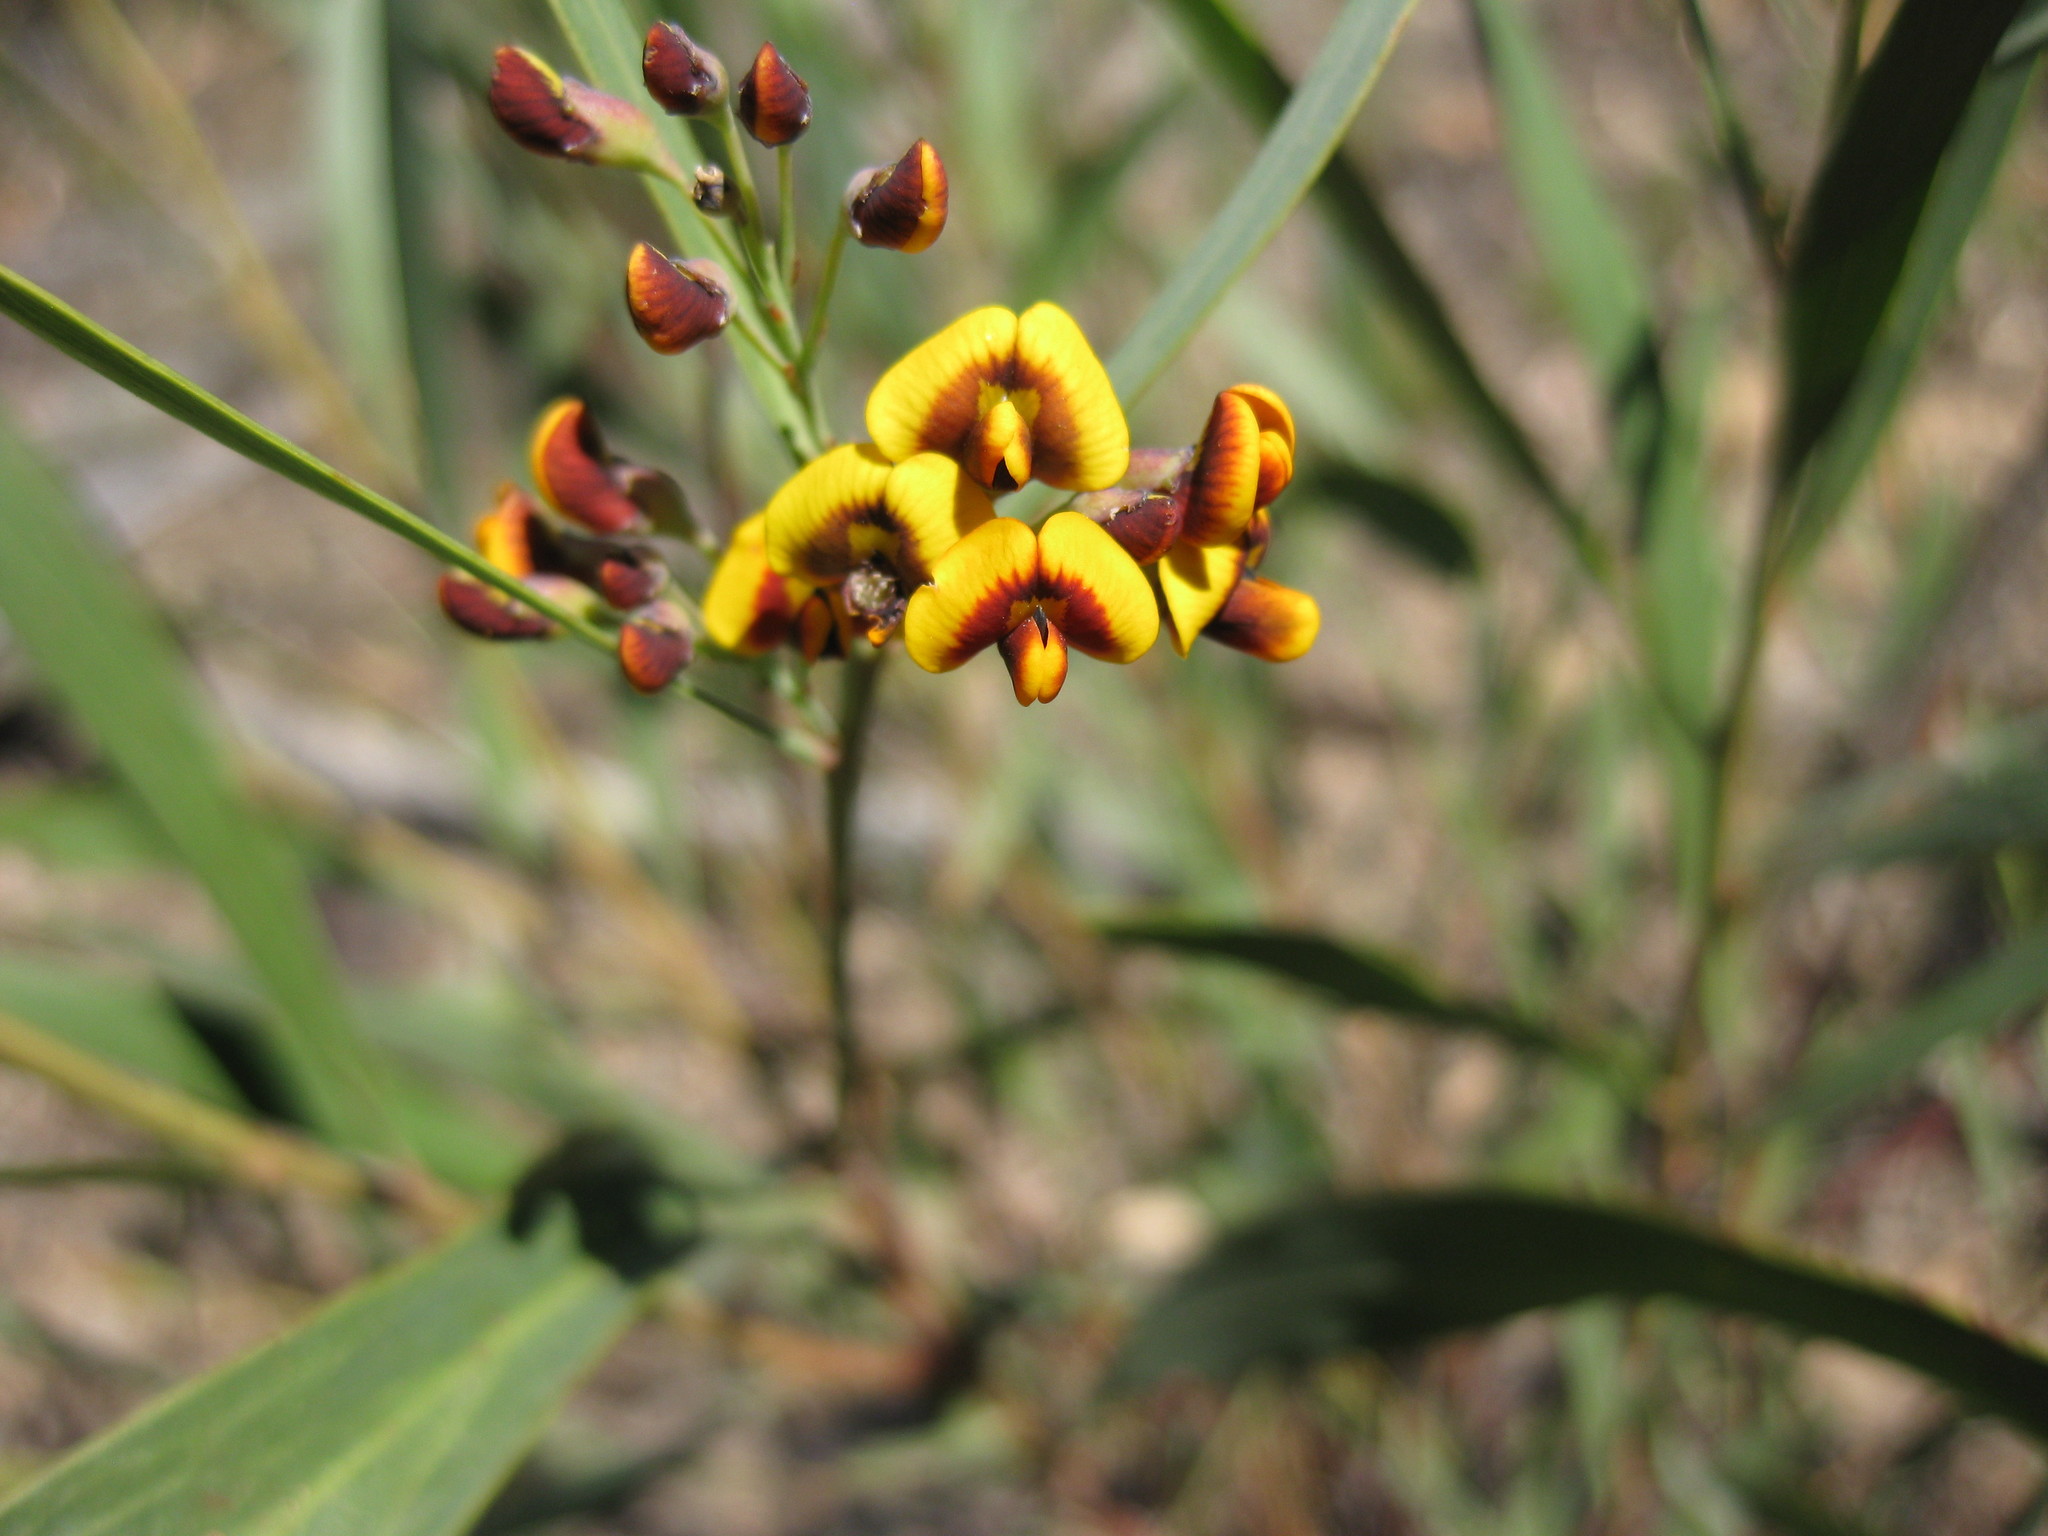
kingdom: Plantae
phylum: Tracheophyta
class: Magnoliopsida
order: Fabales
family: Fabaceae
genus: Daviesia
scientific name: Daviesia mimosoides
